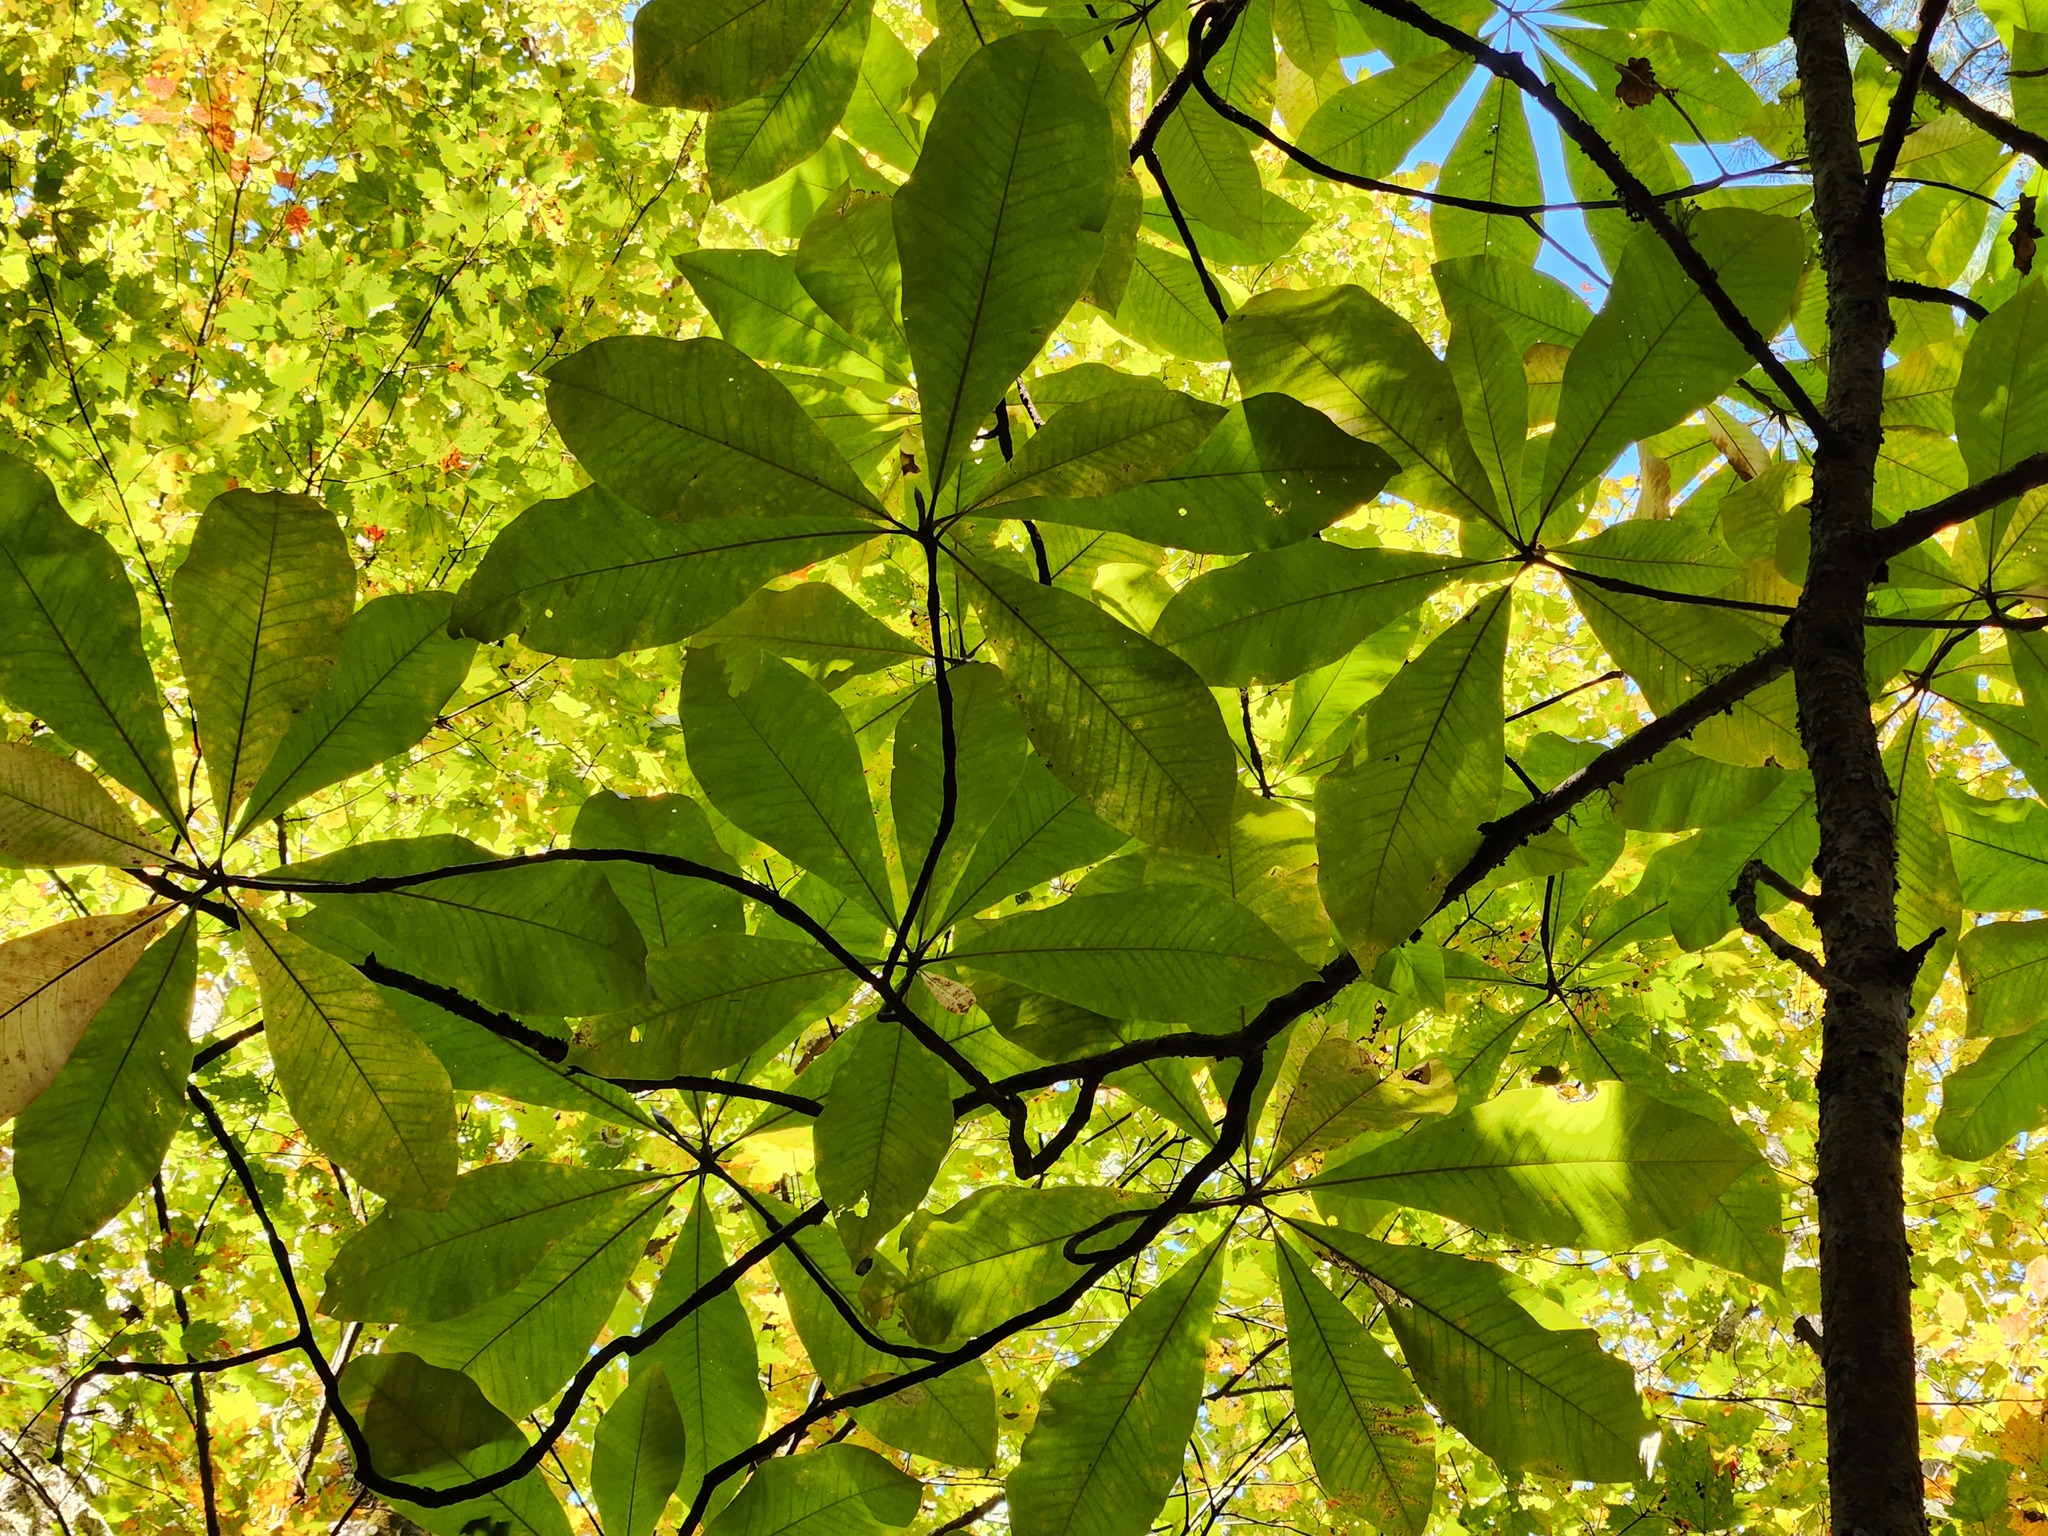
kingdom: Plantae
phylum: Tracheophyta
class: Magnoliopsida
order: Magnoliales
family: Magnoliaceae
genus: Magnolia
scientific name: Magnolia tripetala
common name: Umbrella magnolia
